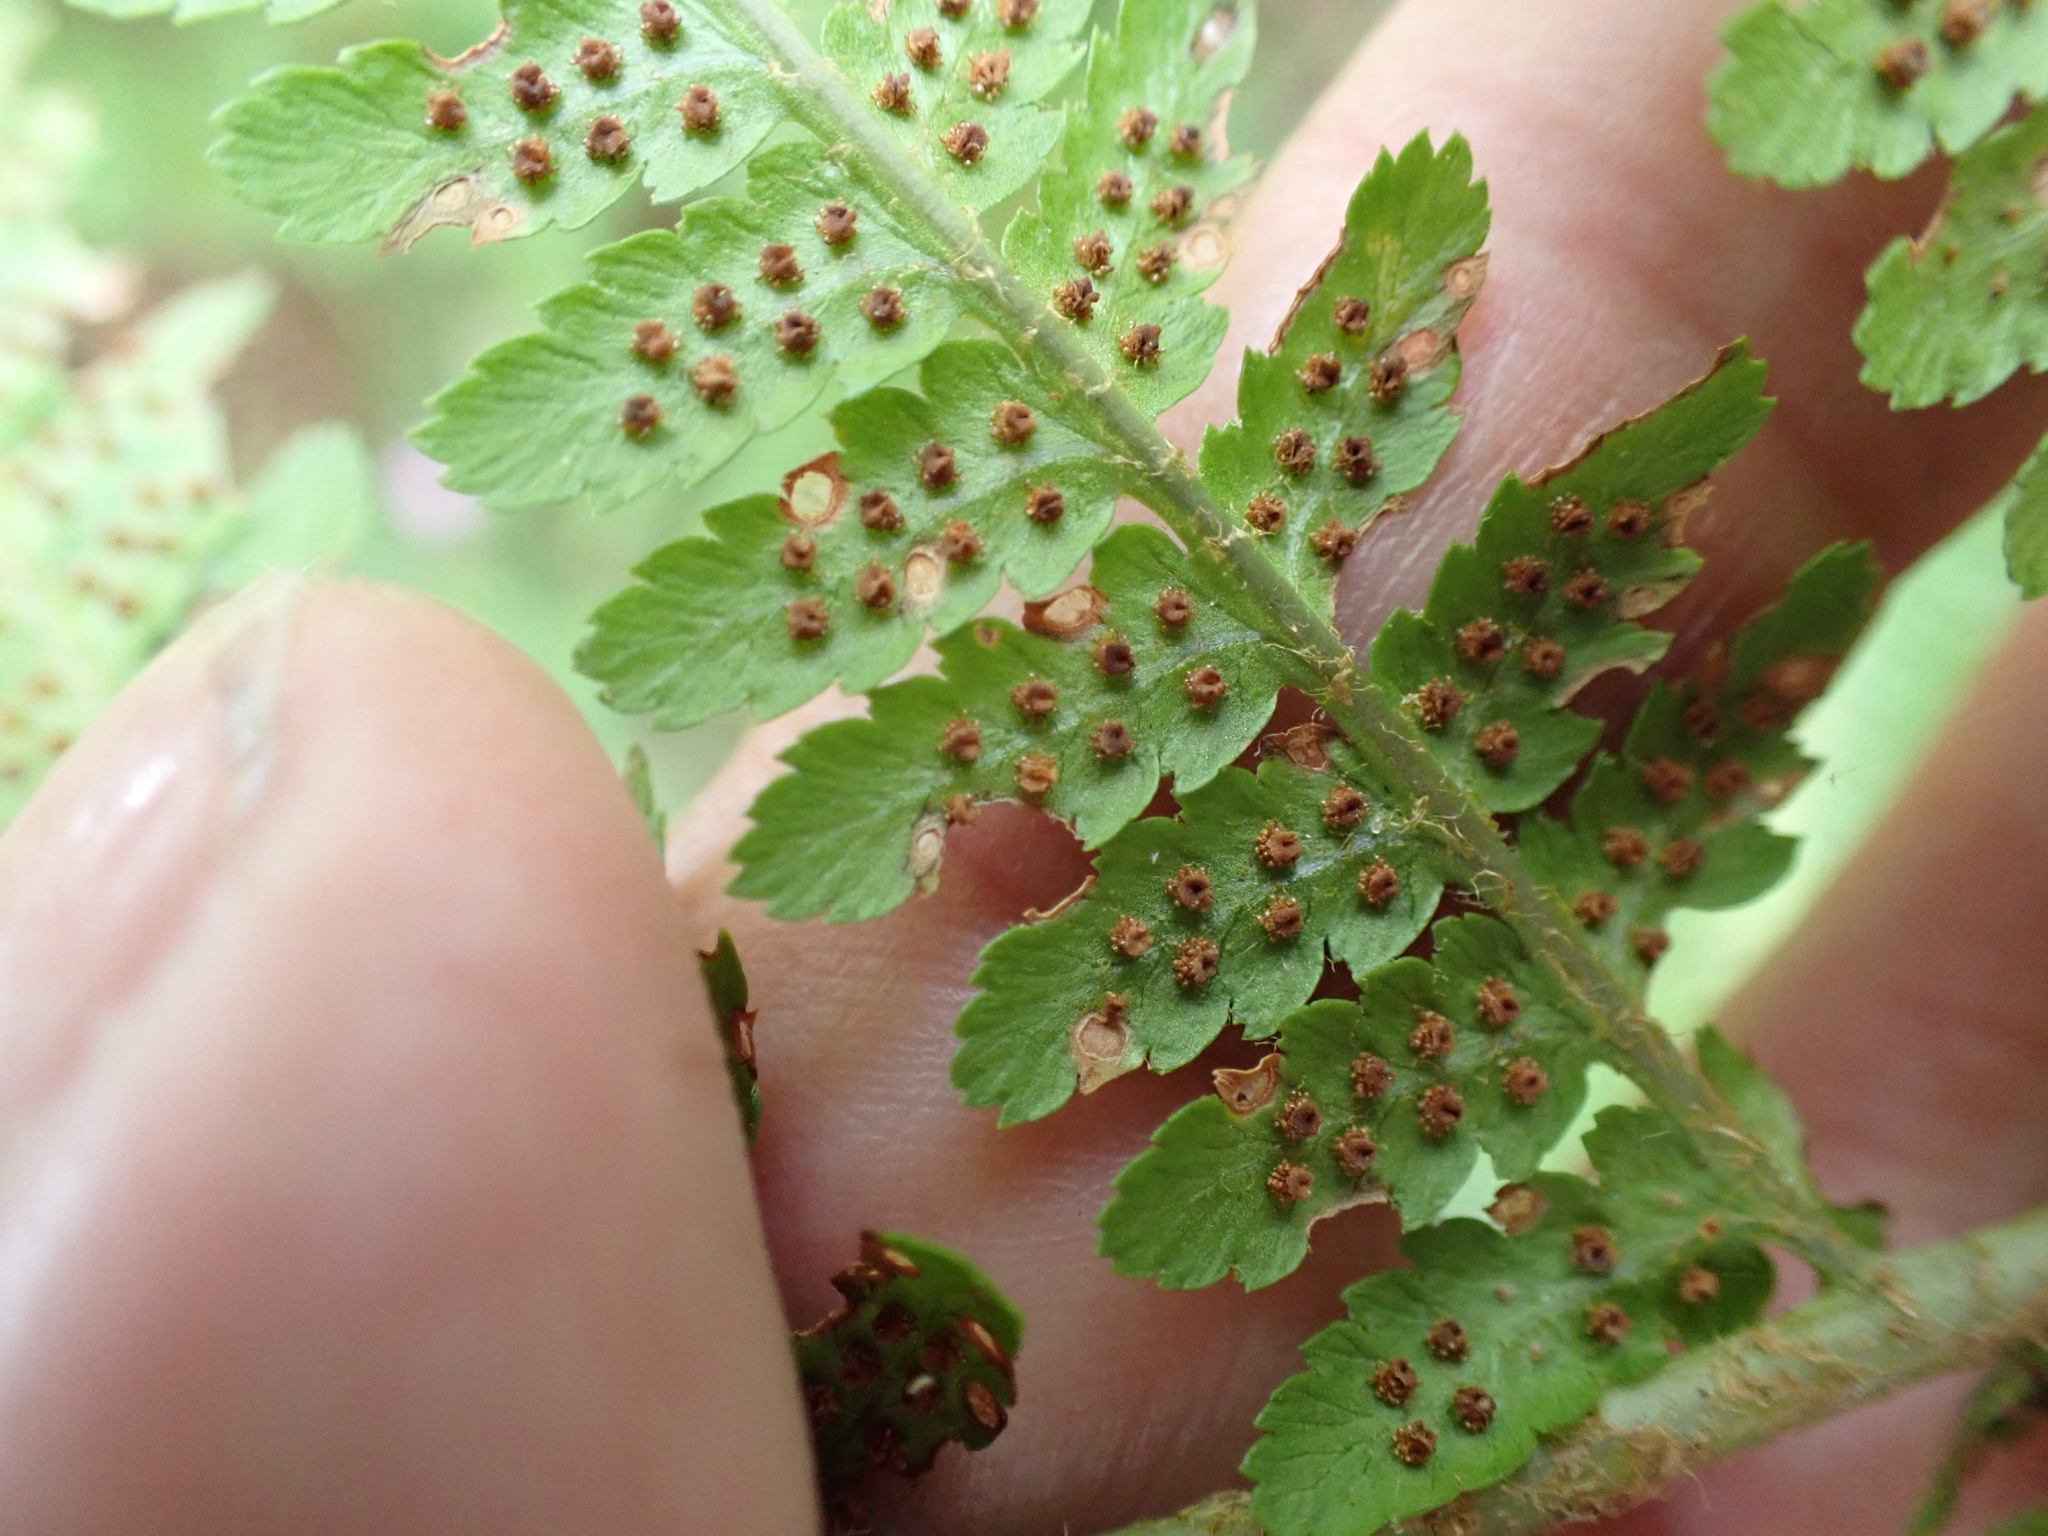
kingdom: Plantae
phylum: Tracheophyta
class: Polypodiopsida
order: Polypodiales
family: Dryopteridaceae
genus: Dryopteris
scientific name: Dryopteris filix-mas
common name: Male fern
